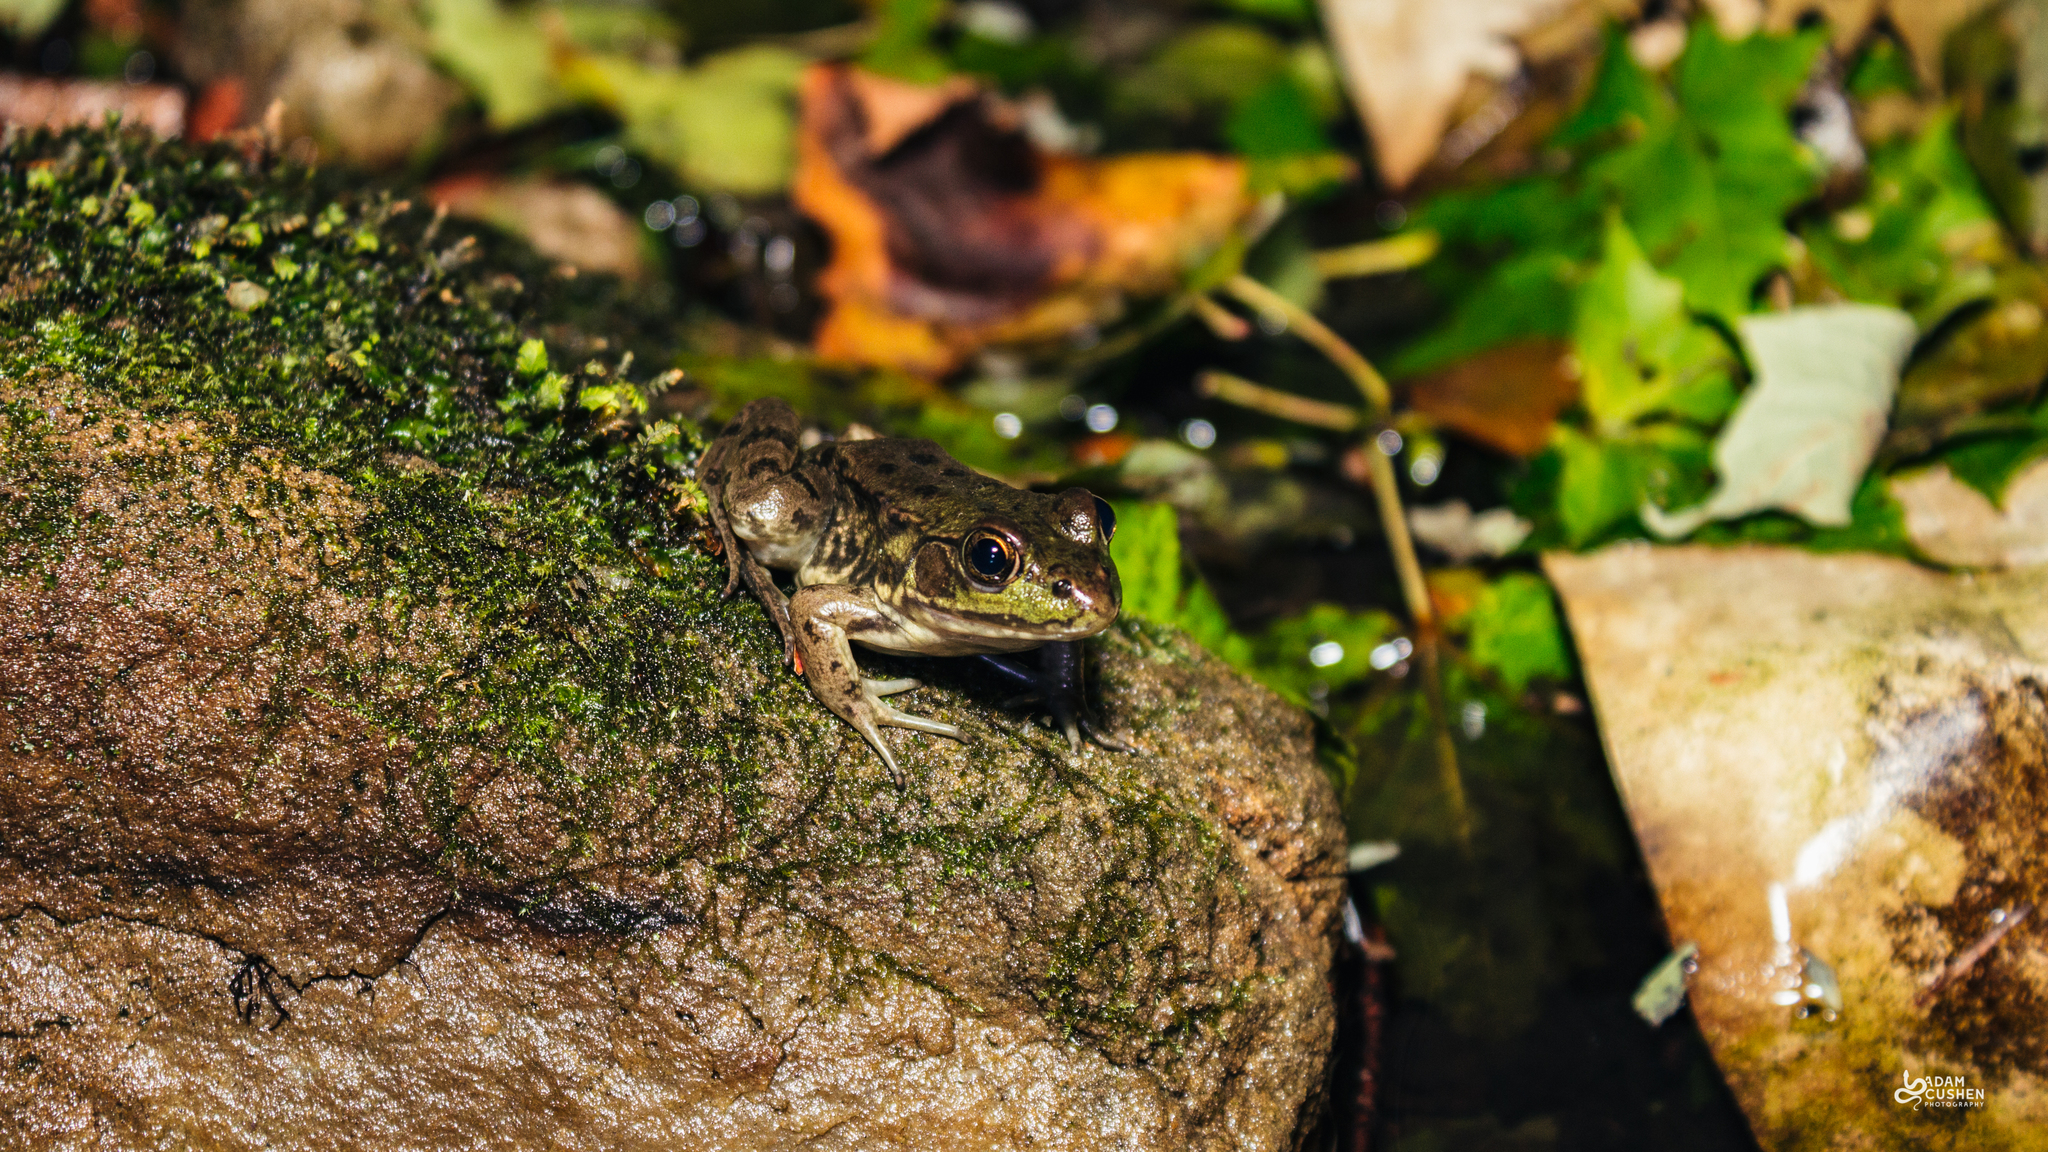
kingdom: Animalia
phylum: Chordata
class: Amphibia
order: Anura
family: Ranidae
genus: Lithobates
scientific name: Lithobates clamitans
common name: Green frog
